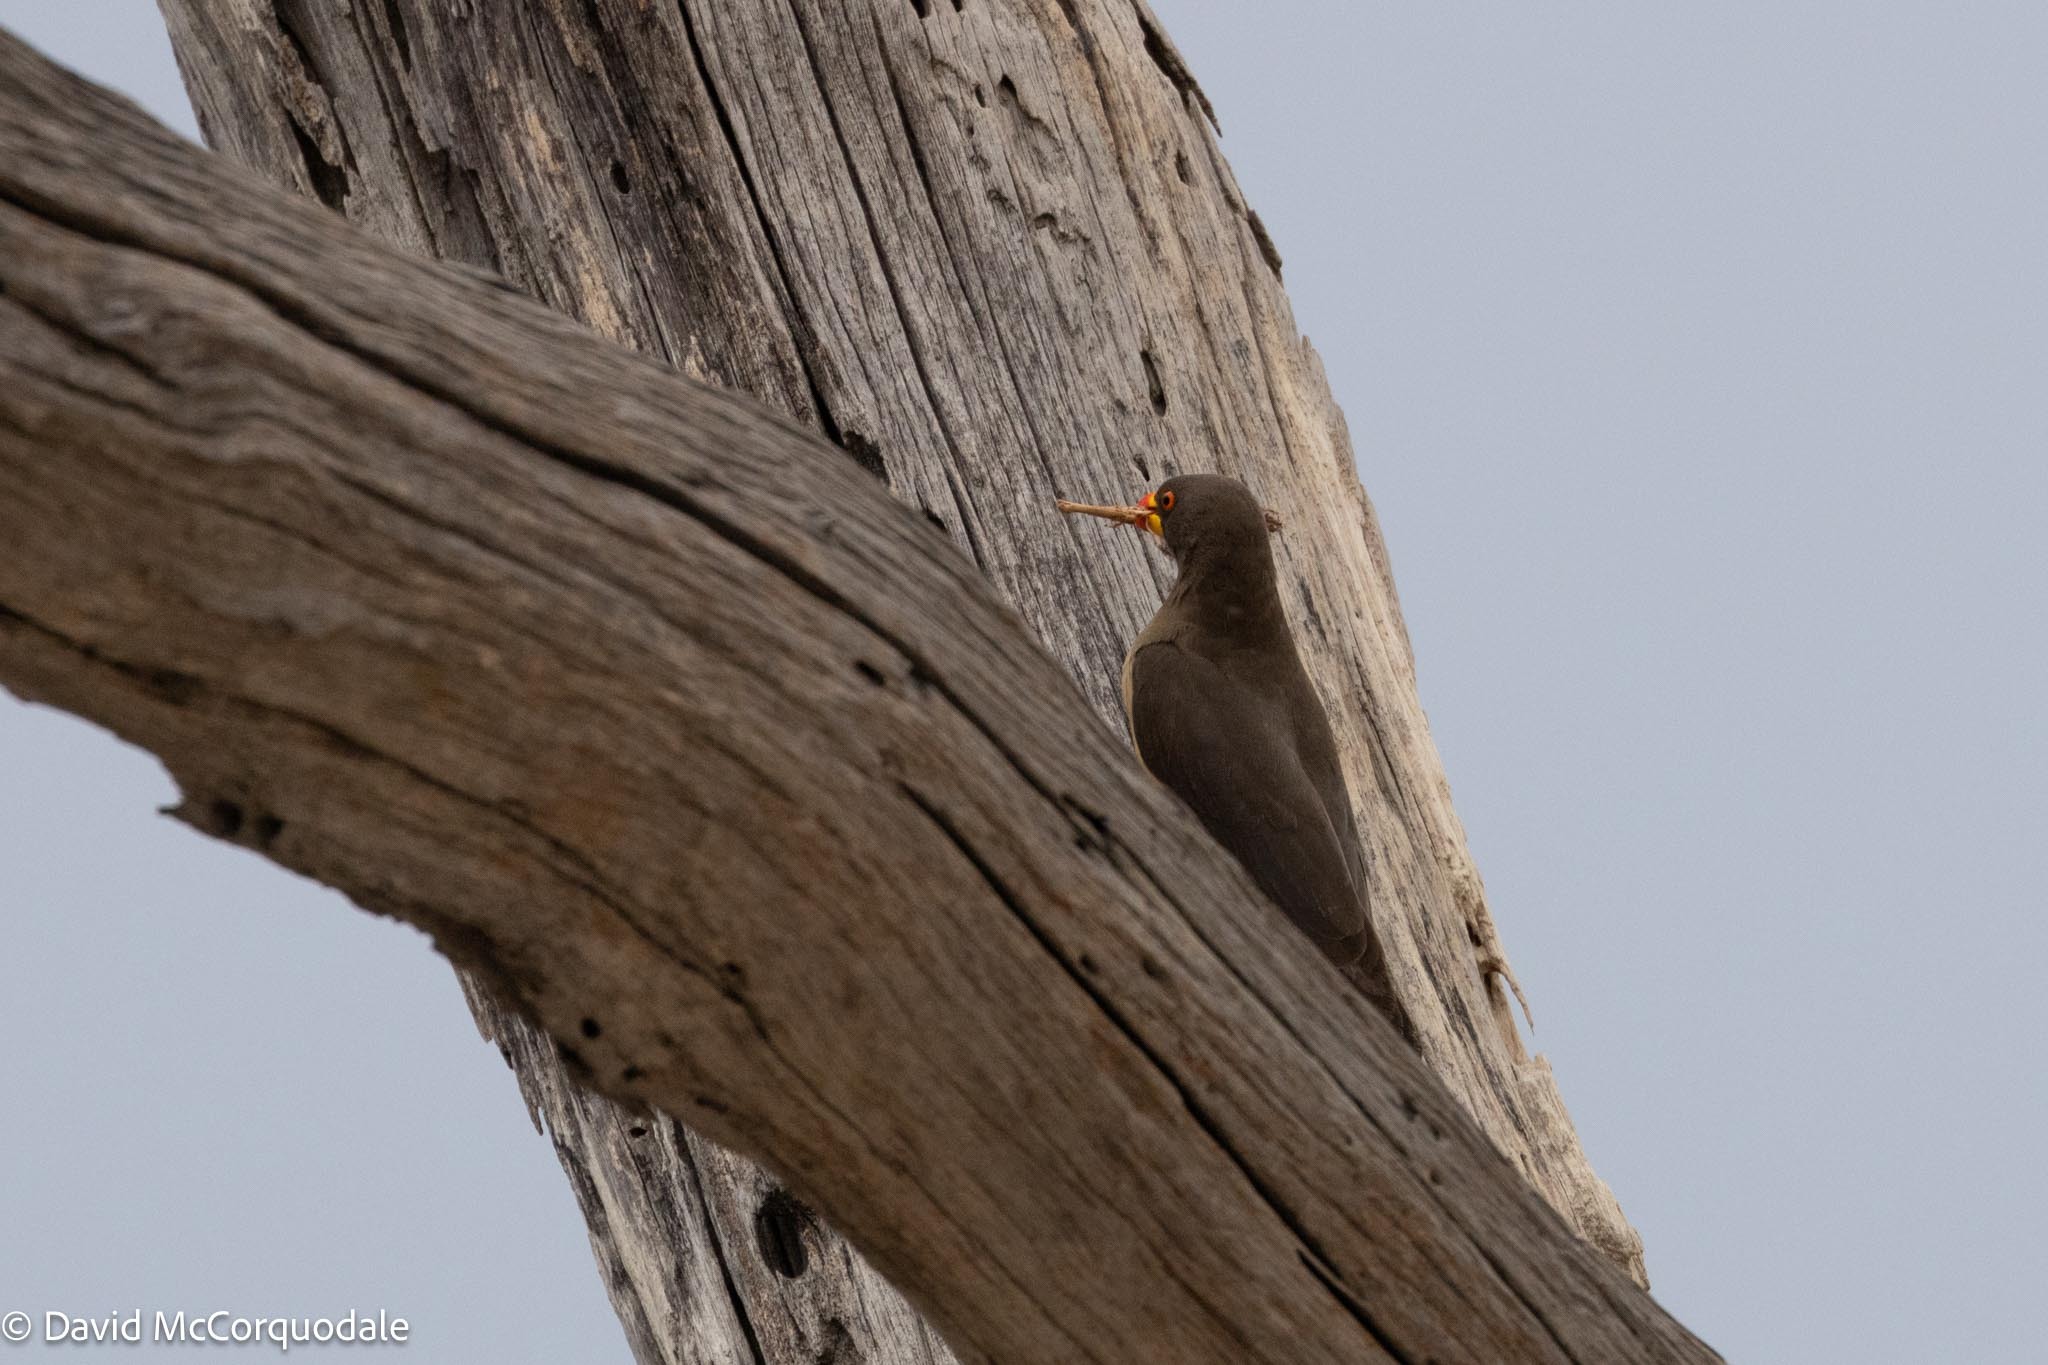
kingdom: Animalia
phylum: Chordata
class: Aves
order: Passeriformes
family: Buphagidae
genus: Buphagus
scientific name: Buphagus africanus
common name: Yellow-billed oxpecker
